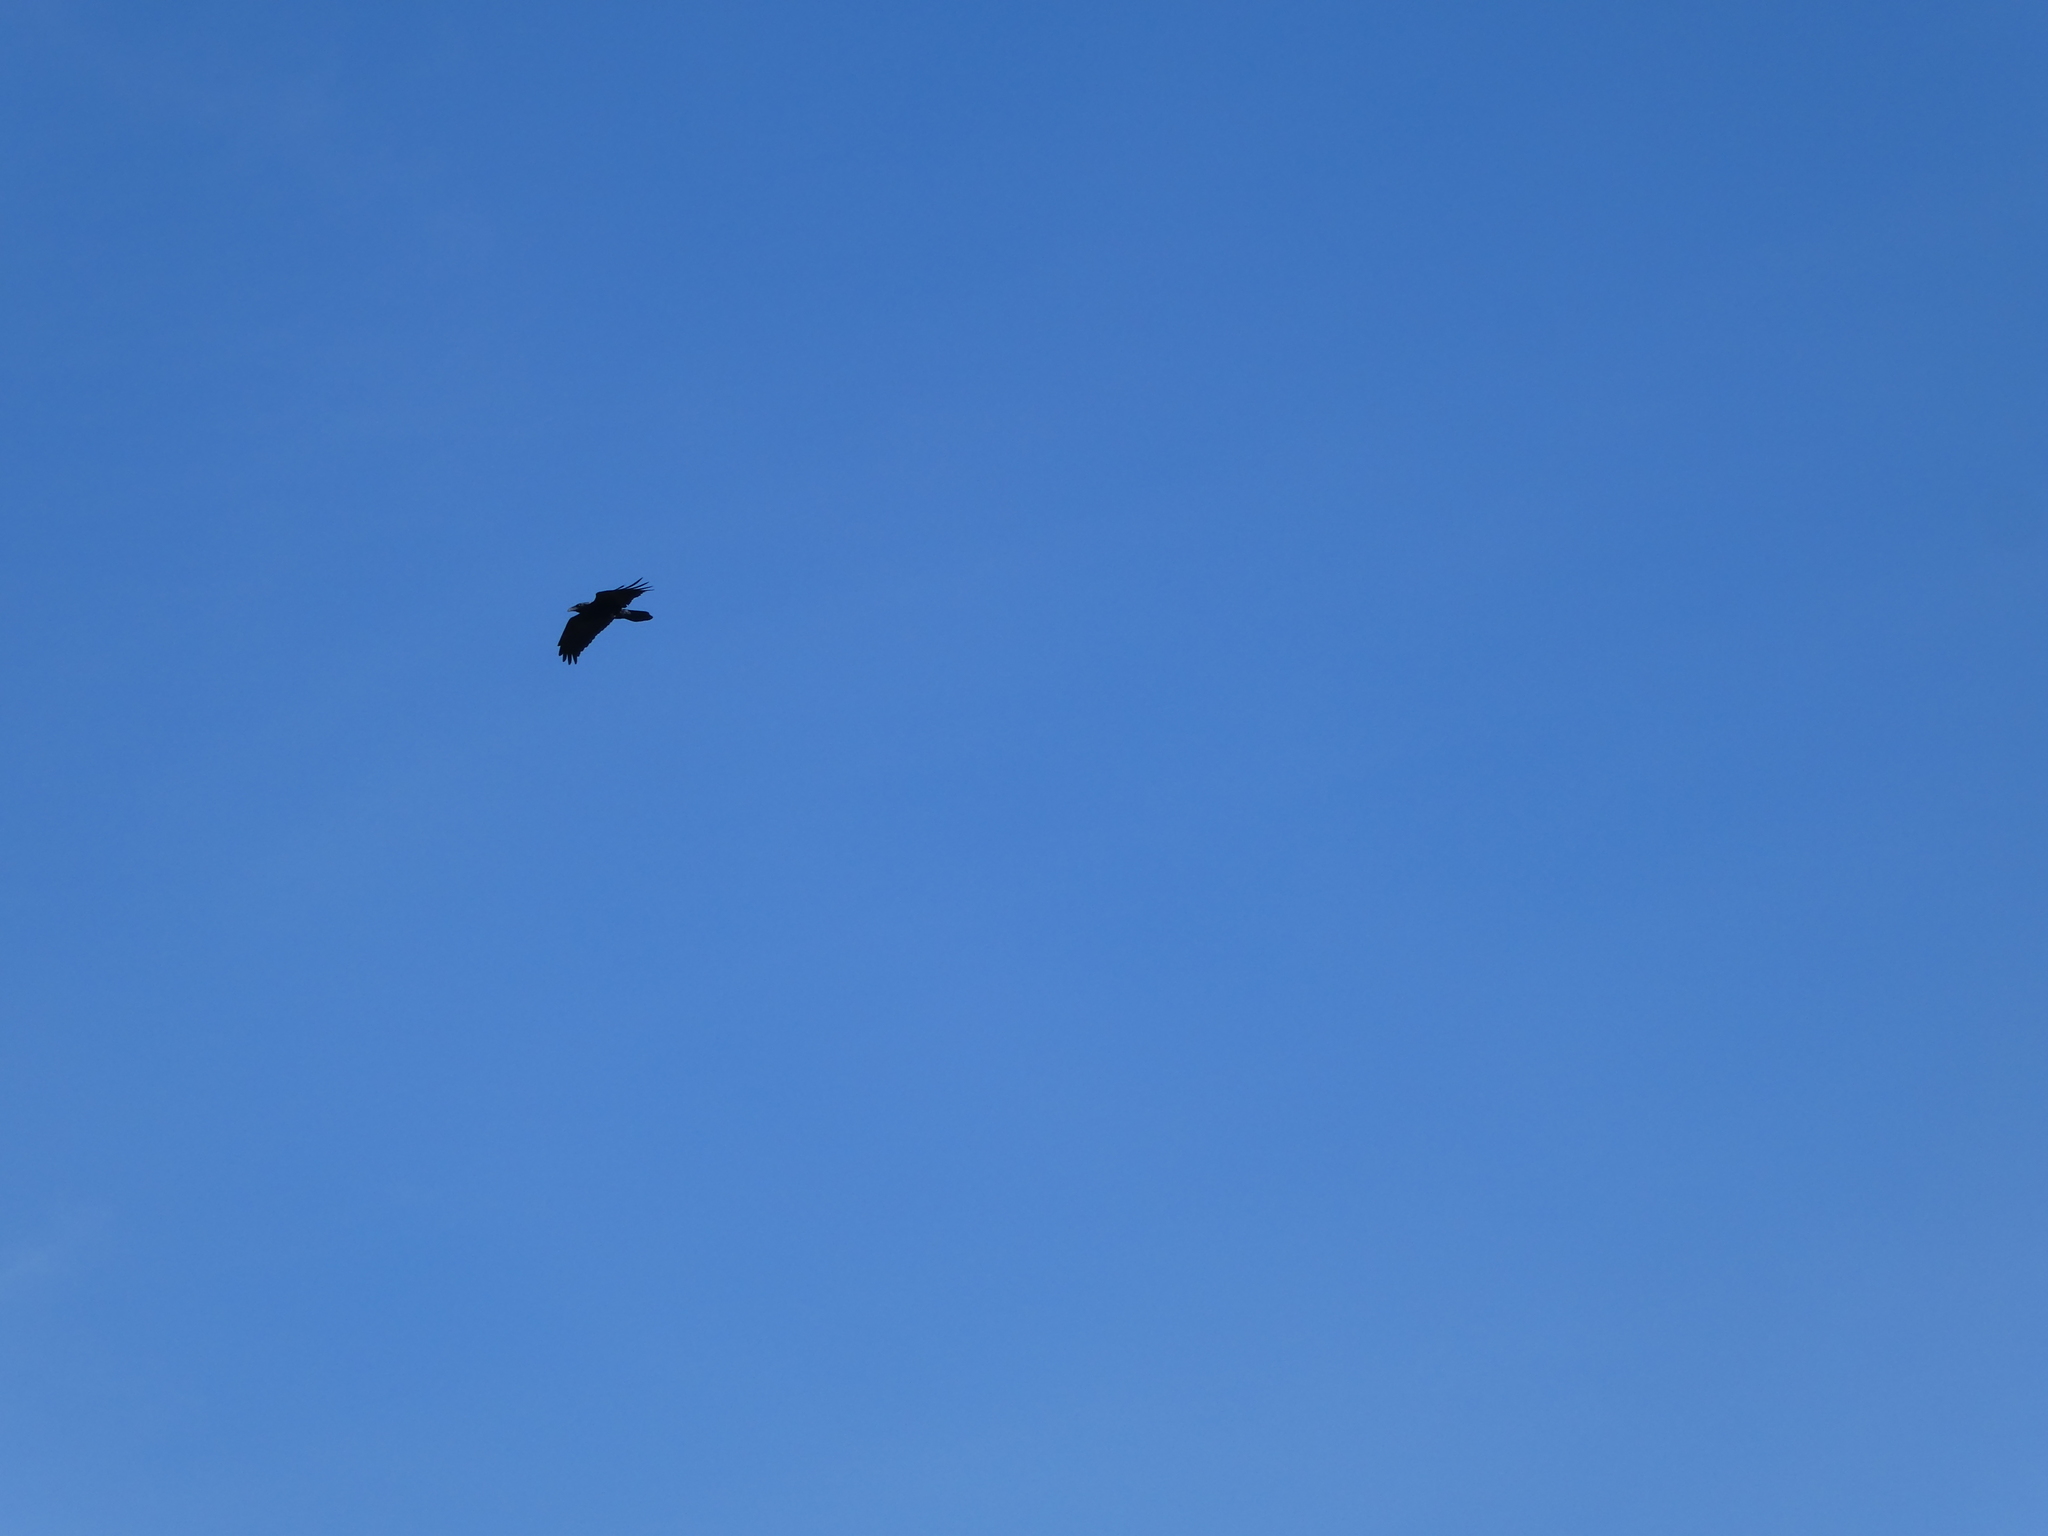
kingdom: Animalia
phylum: Chordata
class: Aves
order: Passeriformes
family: Corvidae
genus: Corvus
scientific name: Corvus corax
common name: Common raven
